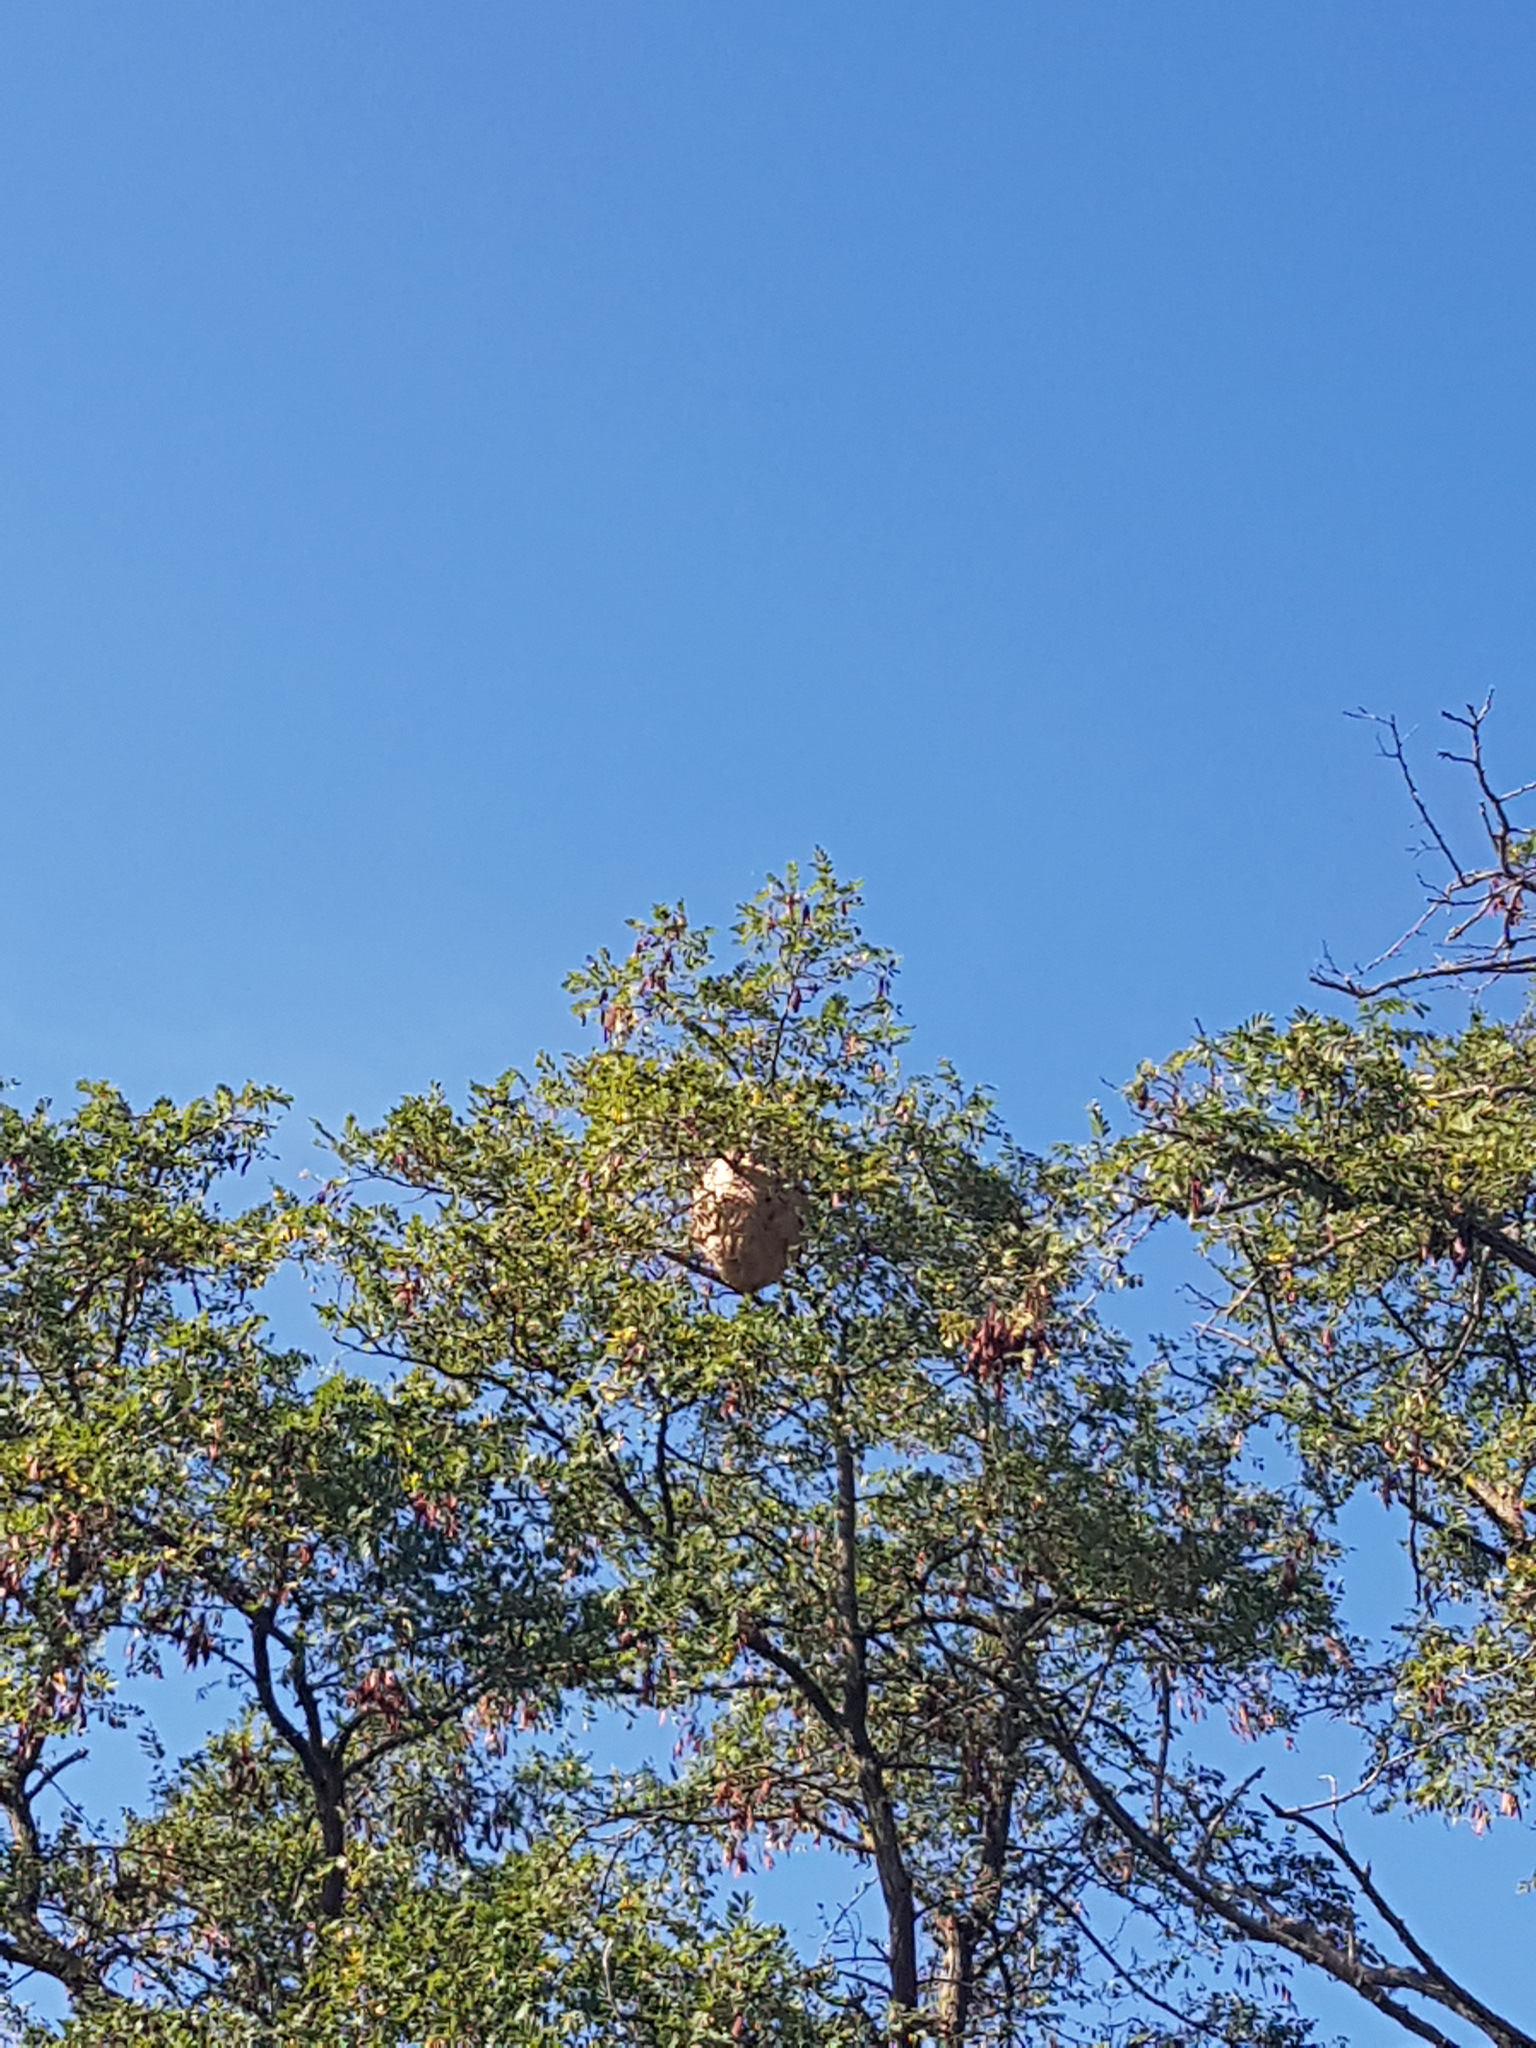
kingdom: Animalia
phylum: Arthropoda
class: Insecta
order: Hymenoptera
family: Vespidae
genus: Vespa
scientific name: Vespa velutina
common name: Asian hornet
